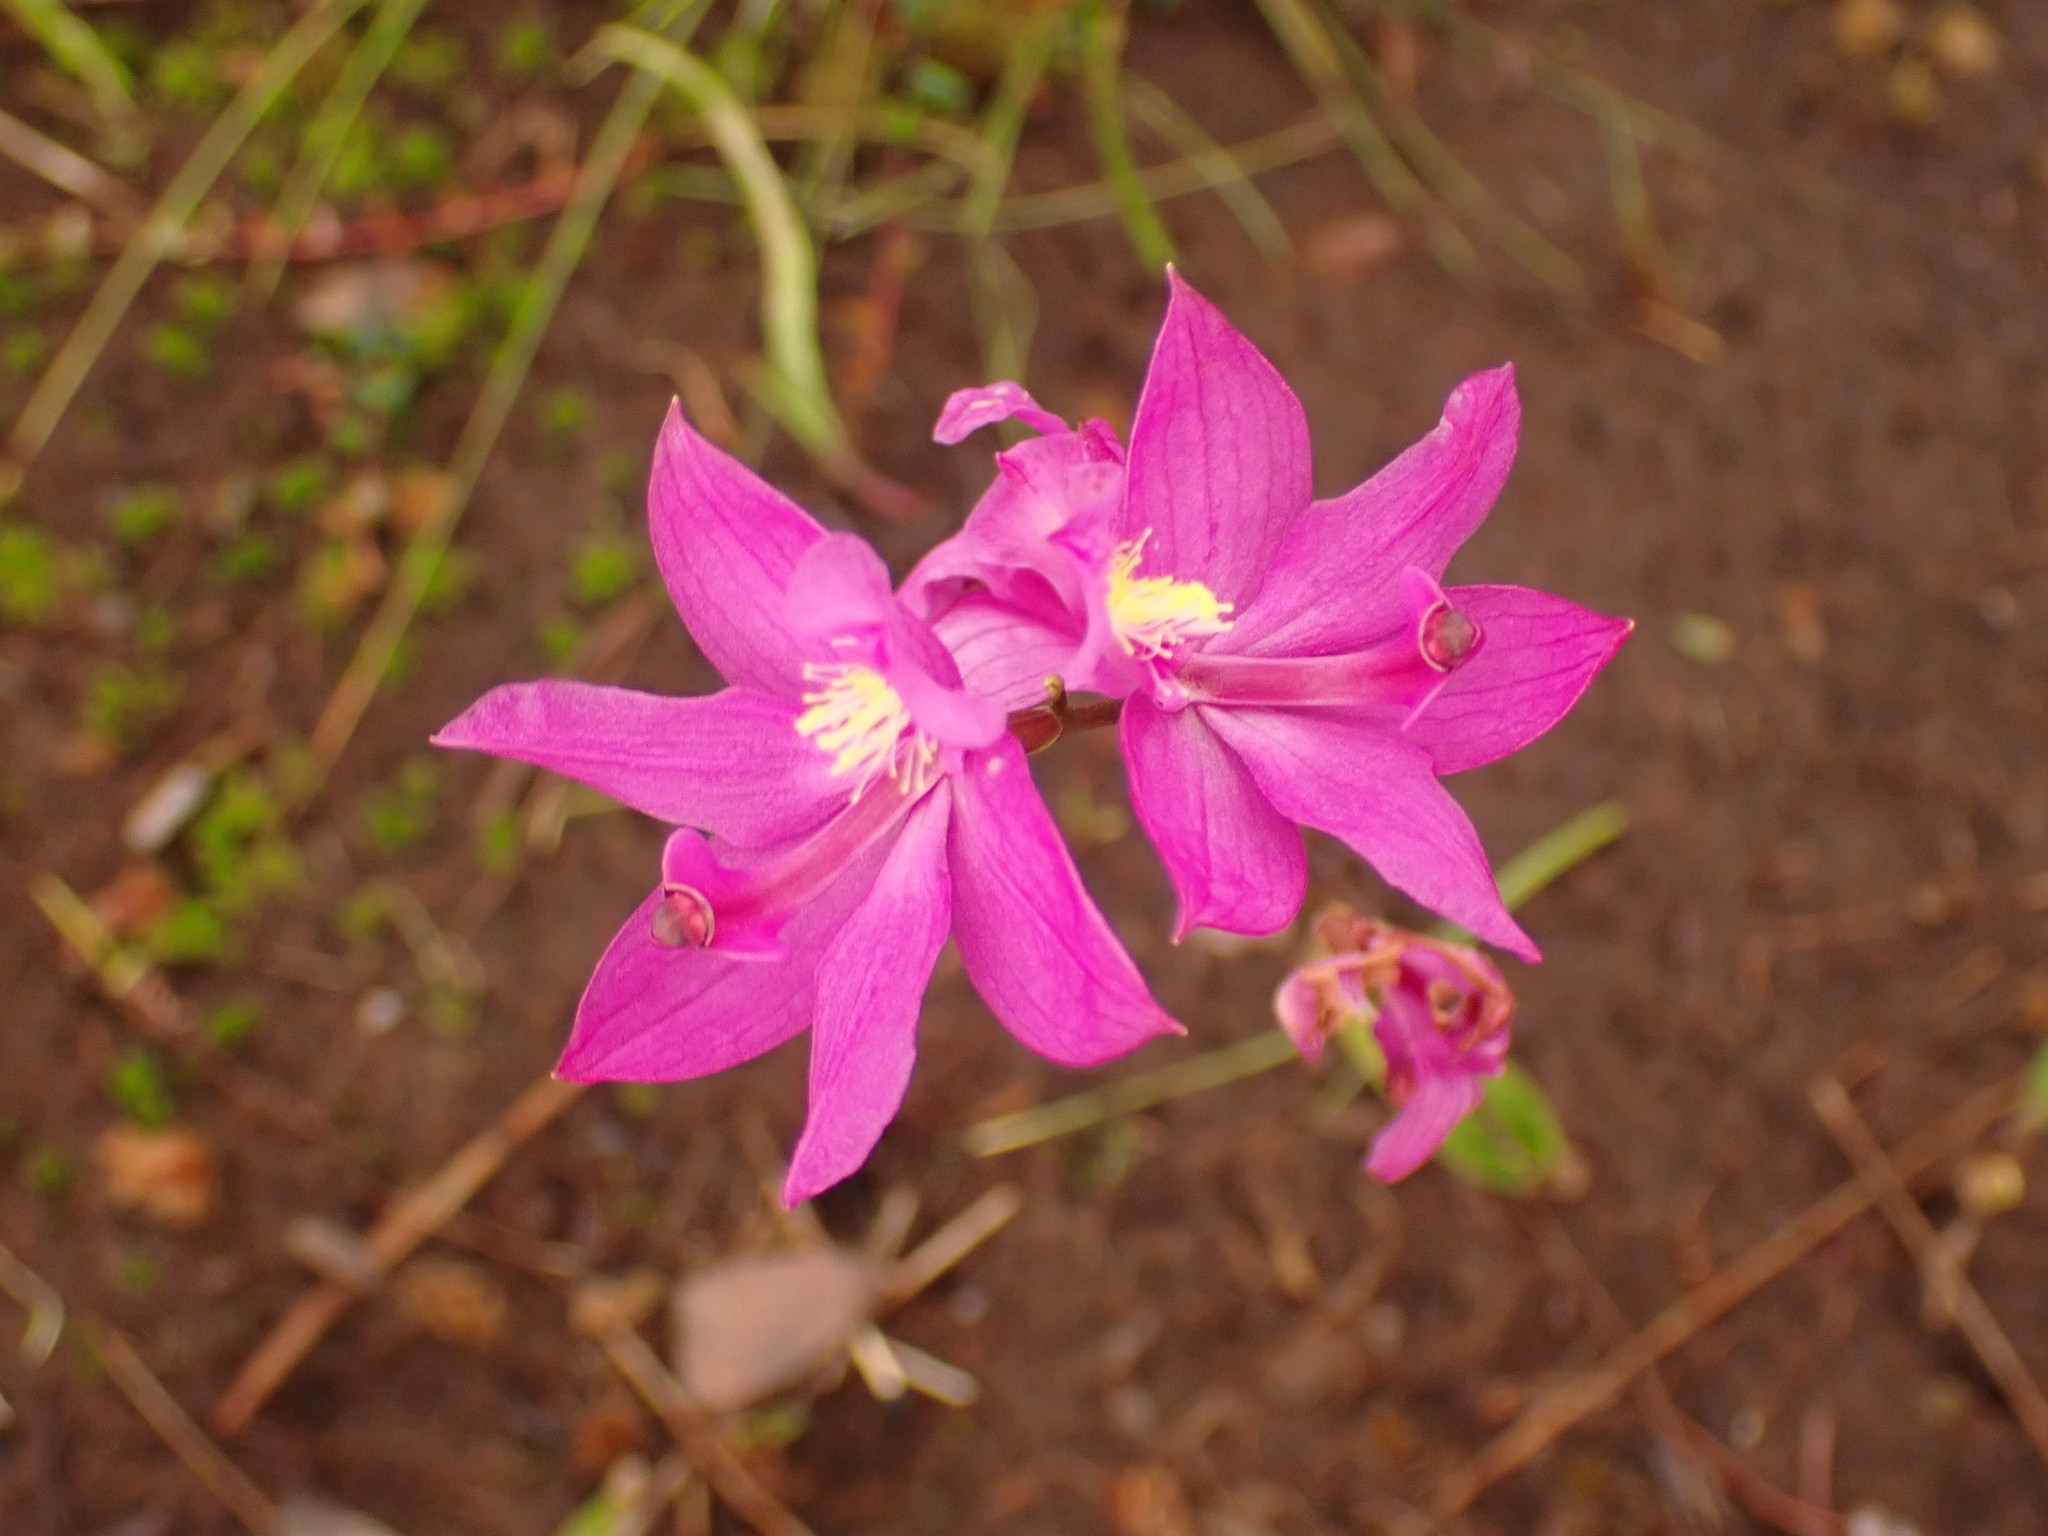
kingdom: Plantae
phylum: Tracheophyta
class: Liliopsida
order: Asparagales
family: Orchidaceae
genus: Calopogon
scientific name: Calopogon tuberosus
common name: Grass-pink
